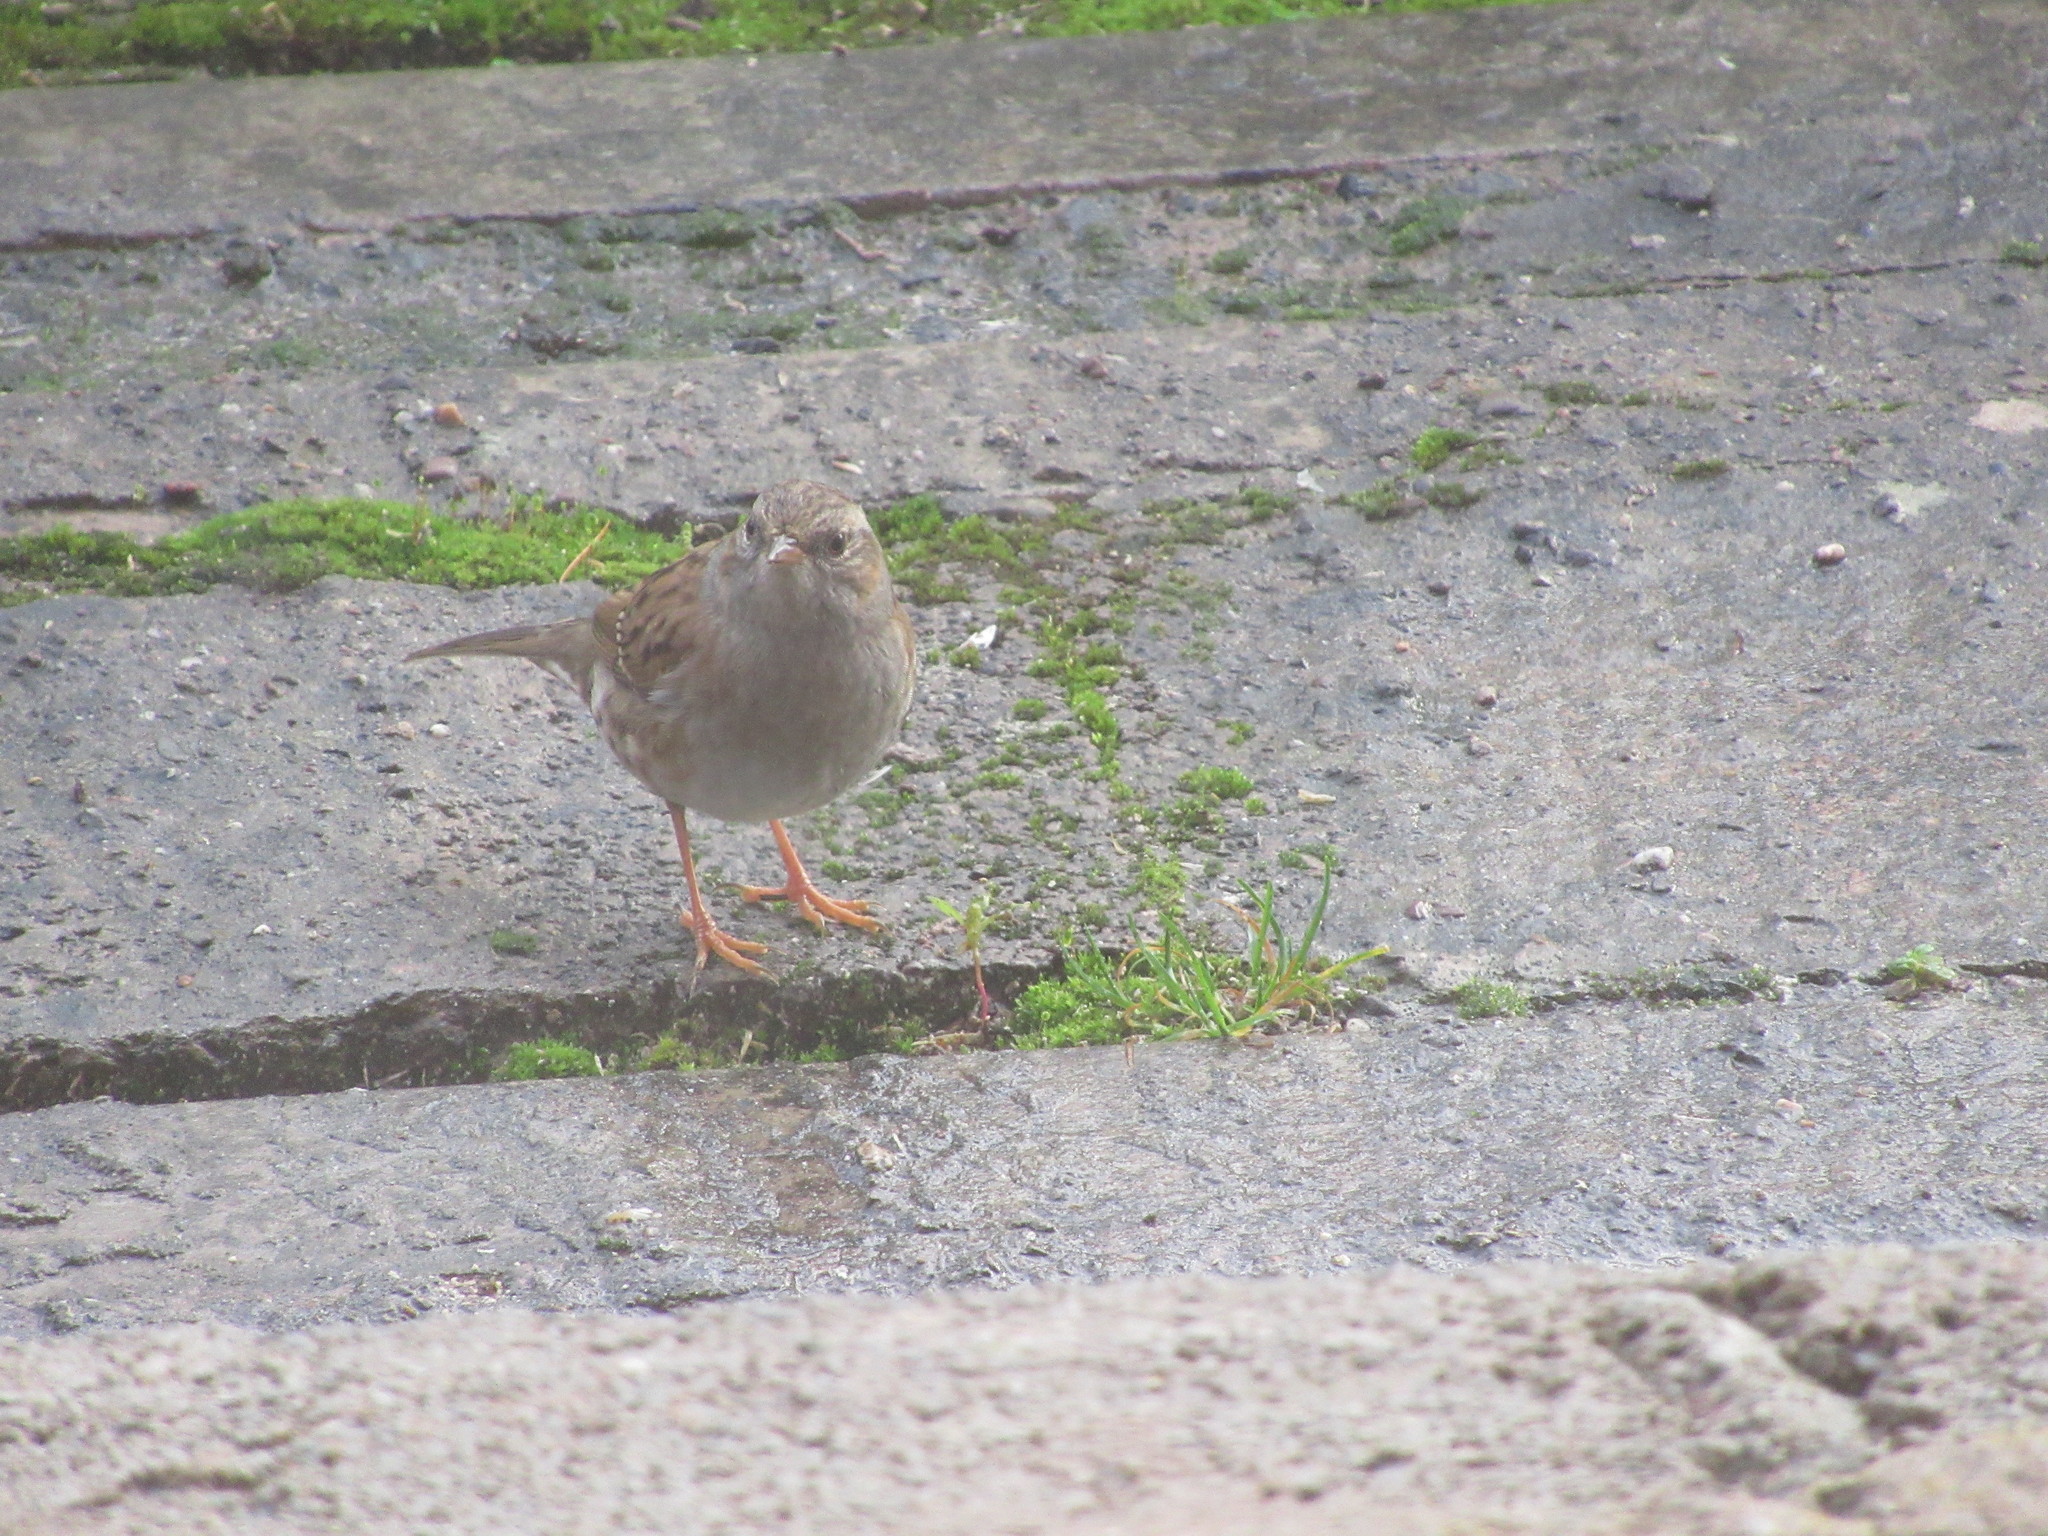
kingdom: Animalia
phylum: Chordata
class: Aves
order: Passeriformes
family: Prunellidae
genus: Prunella
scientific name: Prunella modularis
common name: Dunnock
